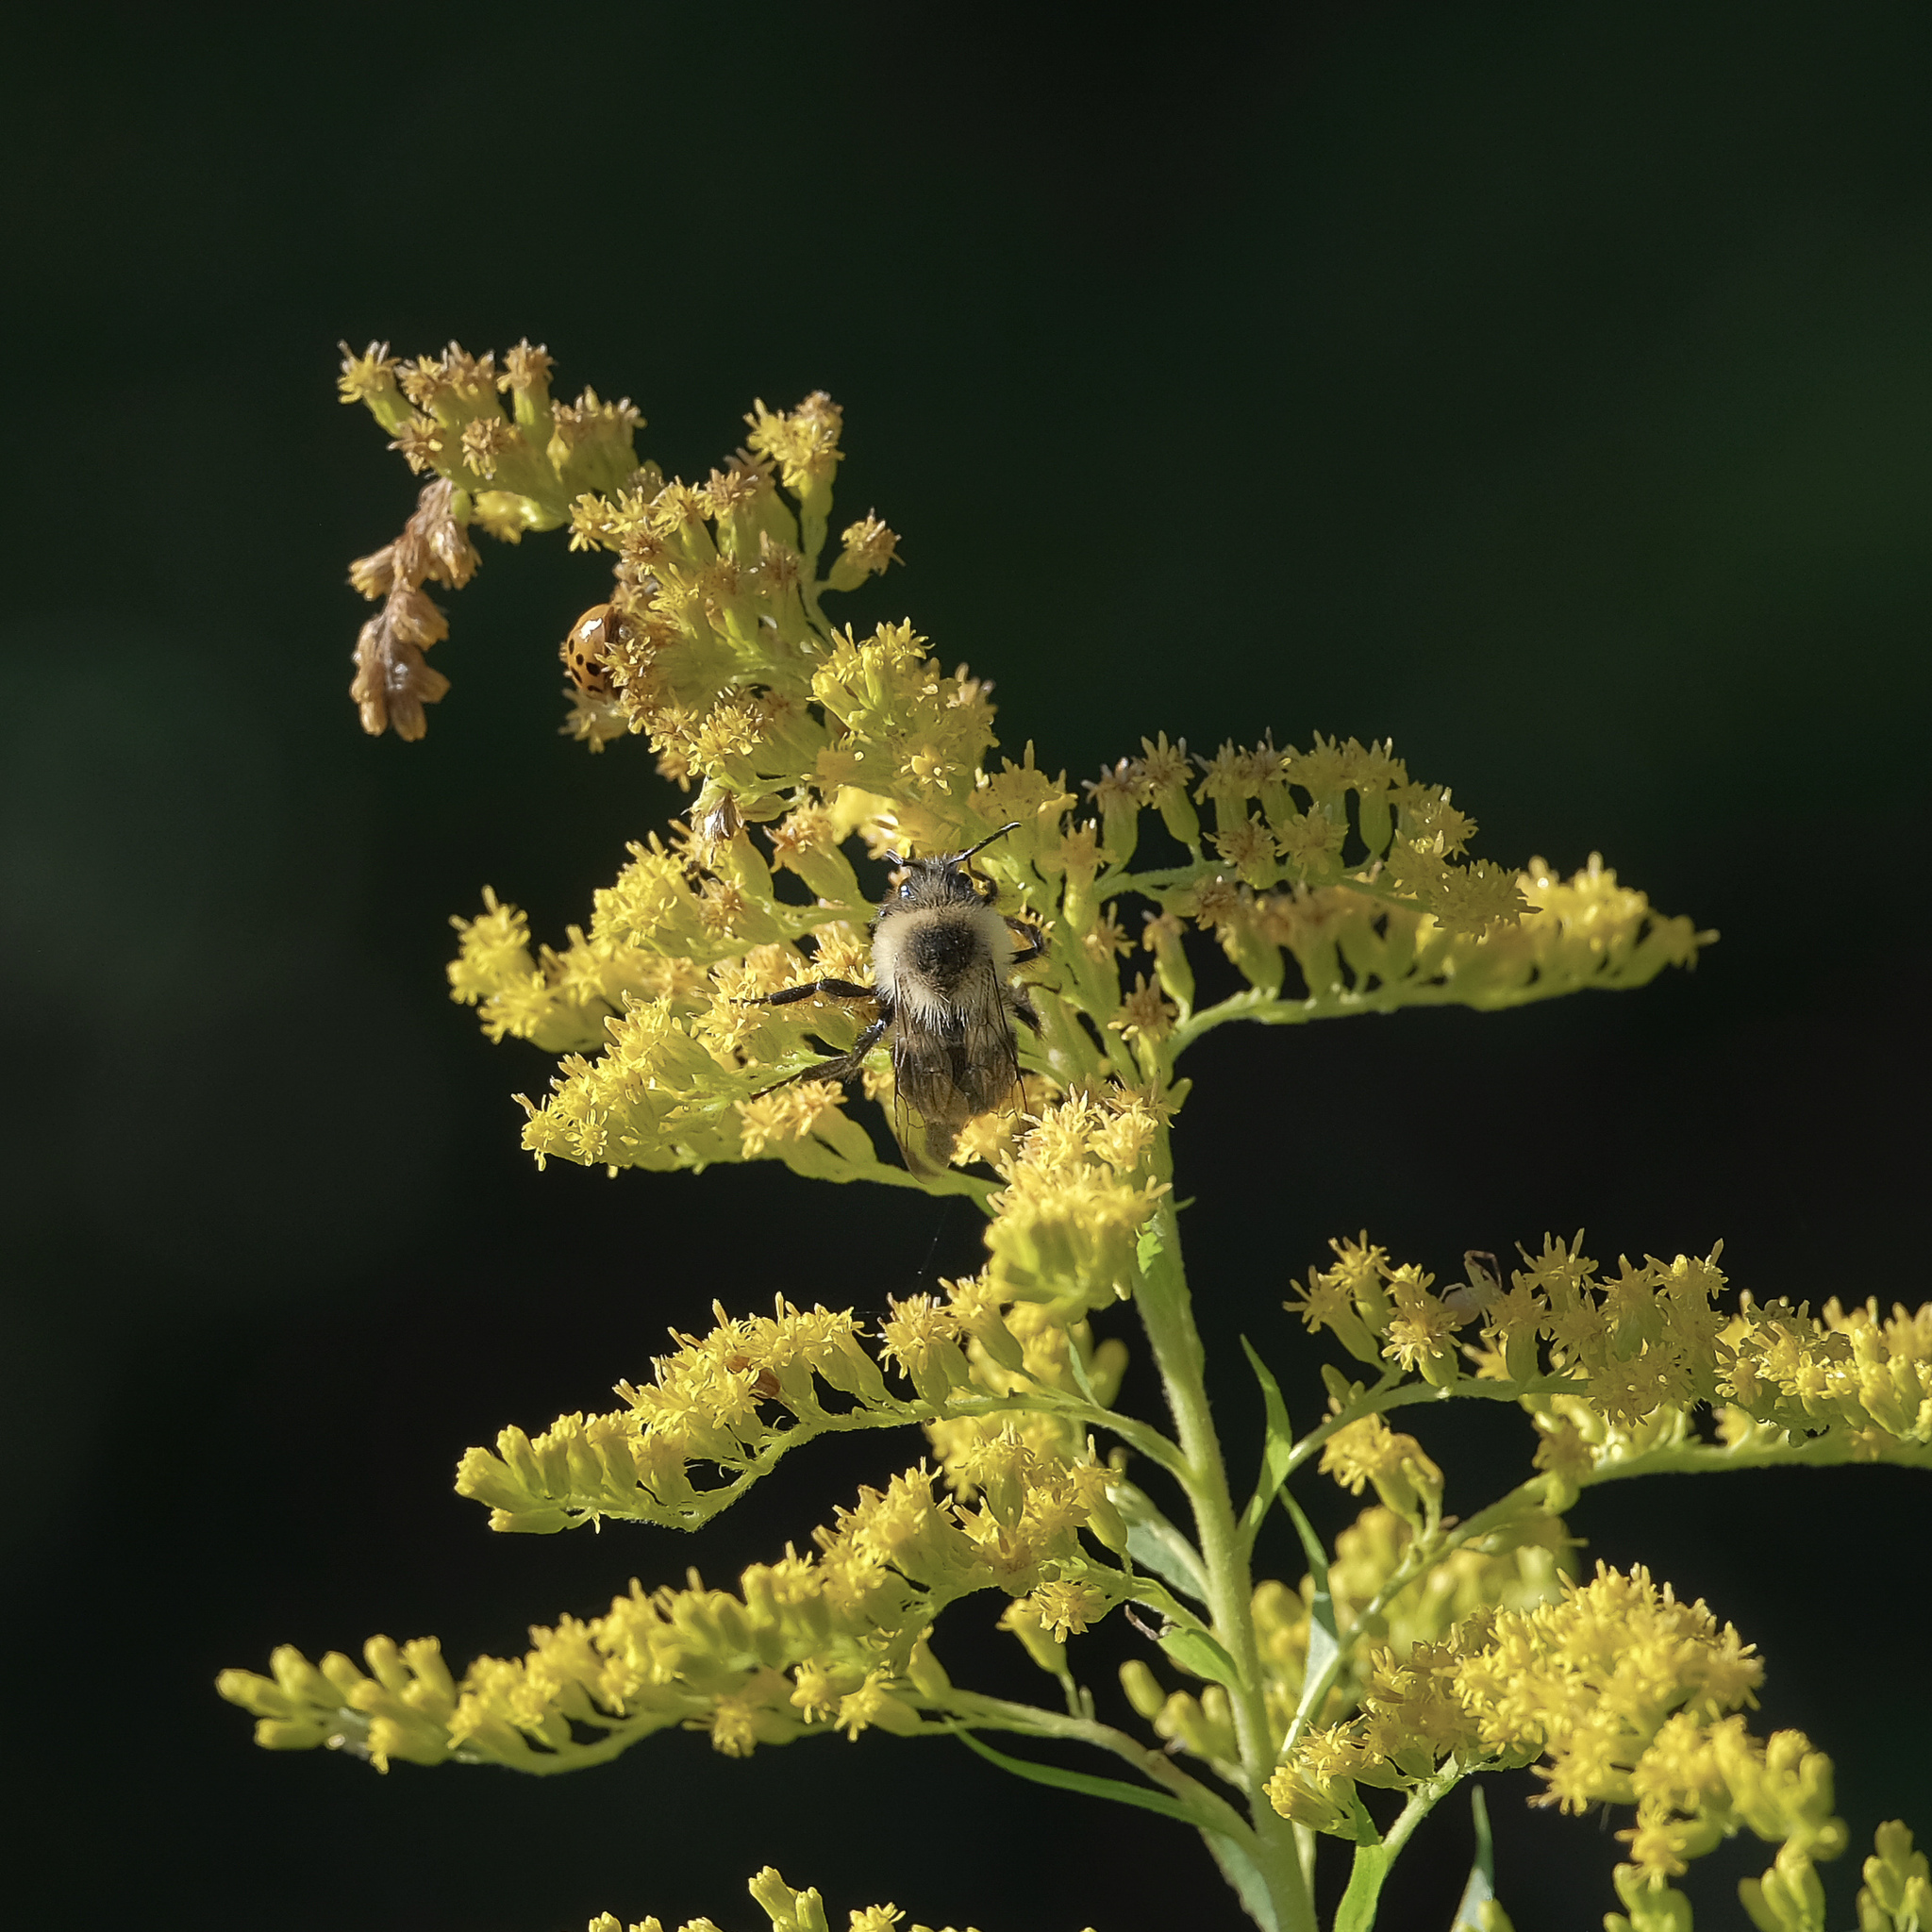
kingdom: Animalia
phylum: Arthropoda
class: Insecta
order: Hymenoptera
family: Apidae
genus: Bombus
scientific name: Bombus impatiens
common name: Common eastern bumble bee
